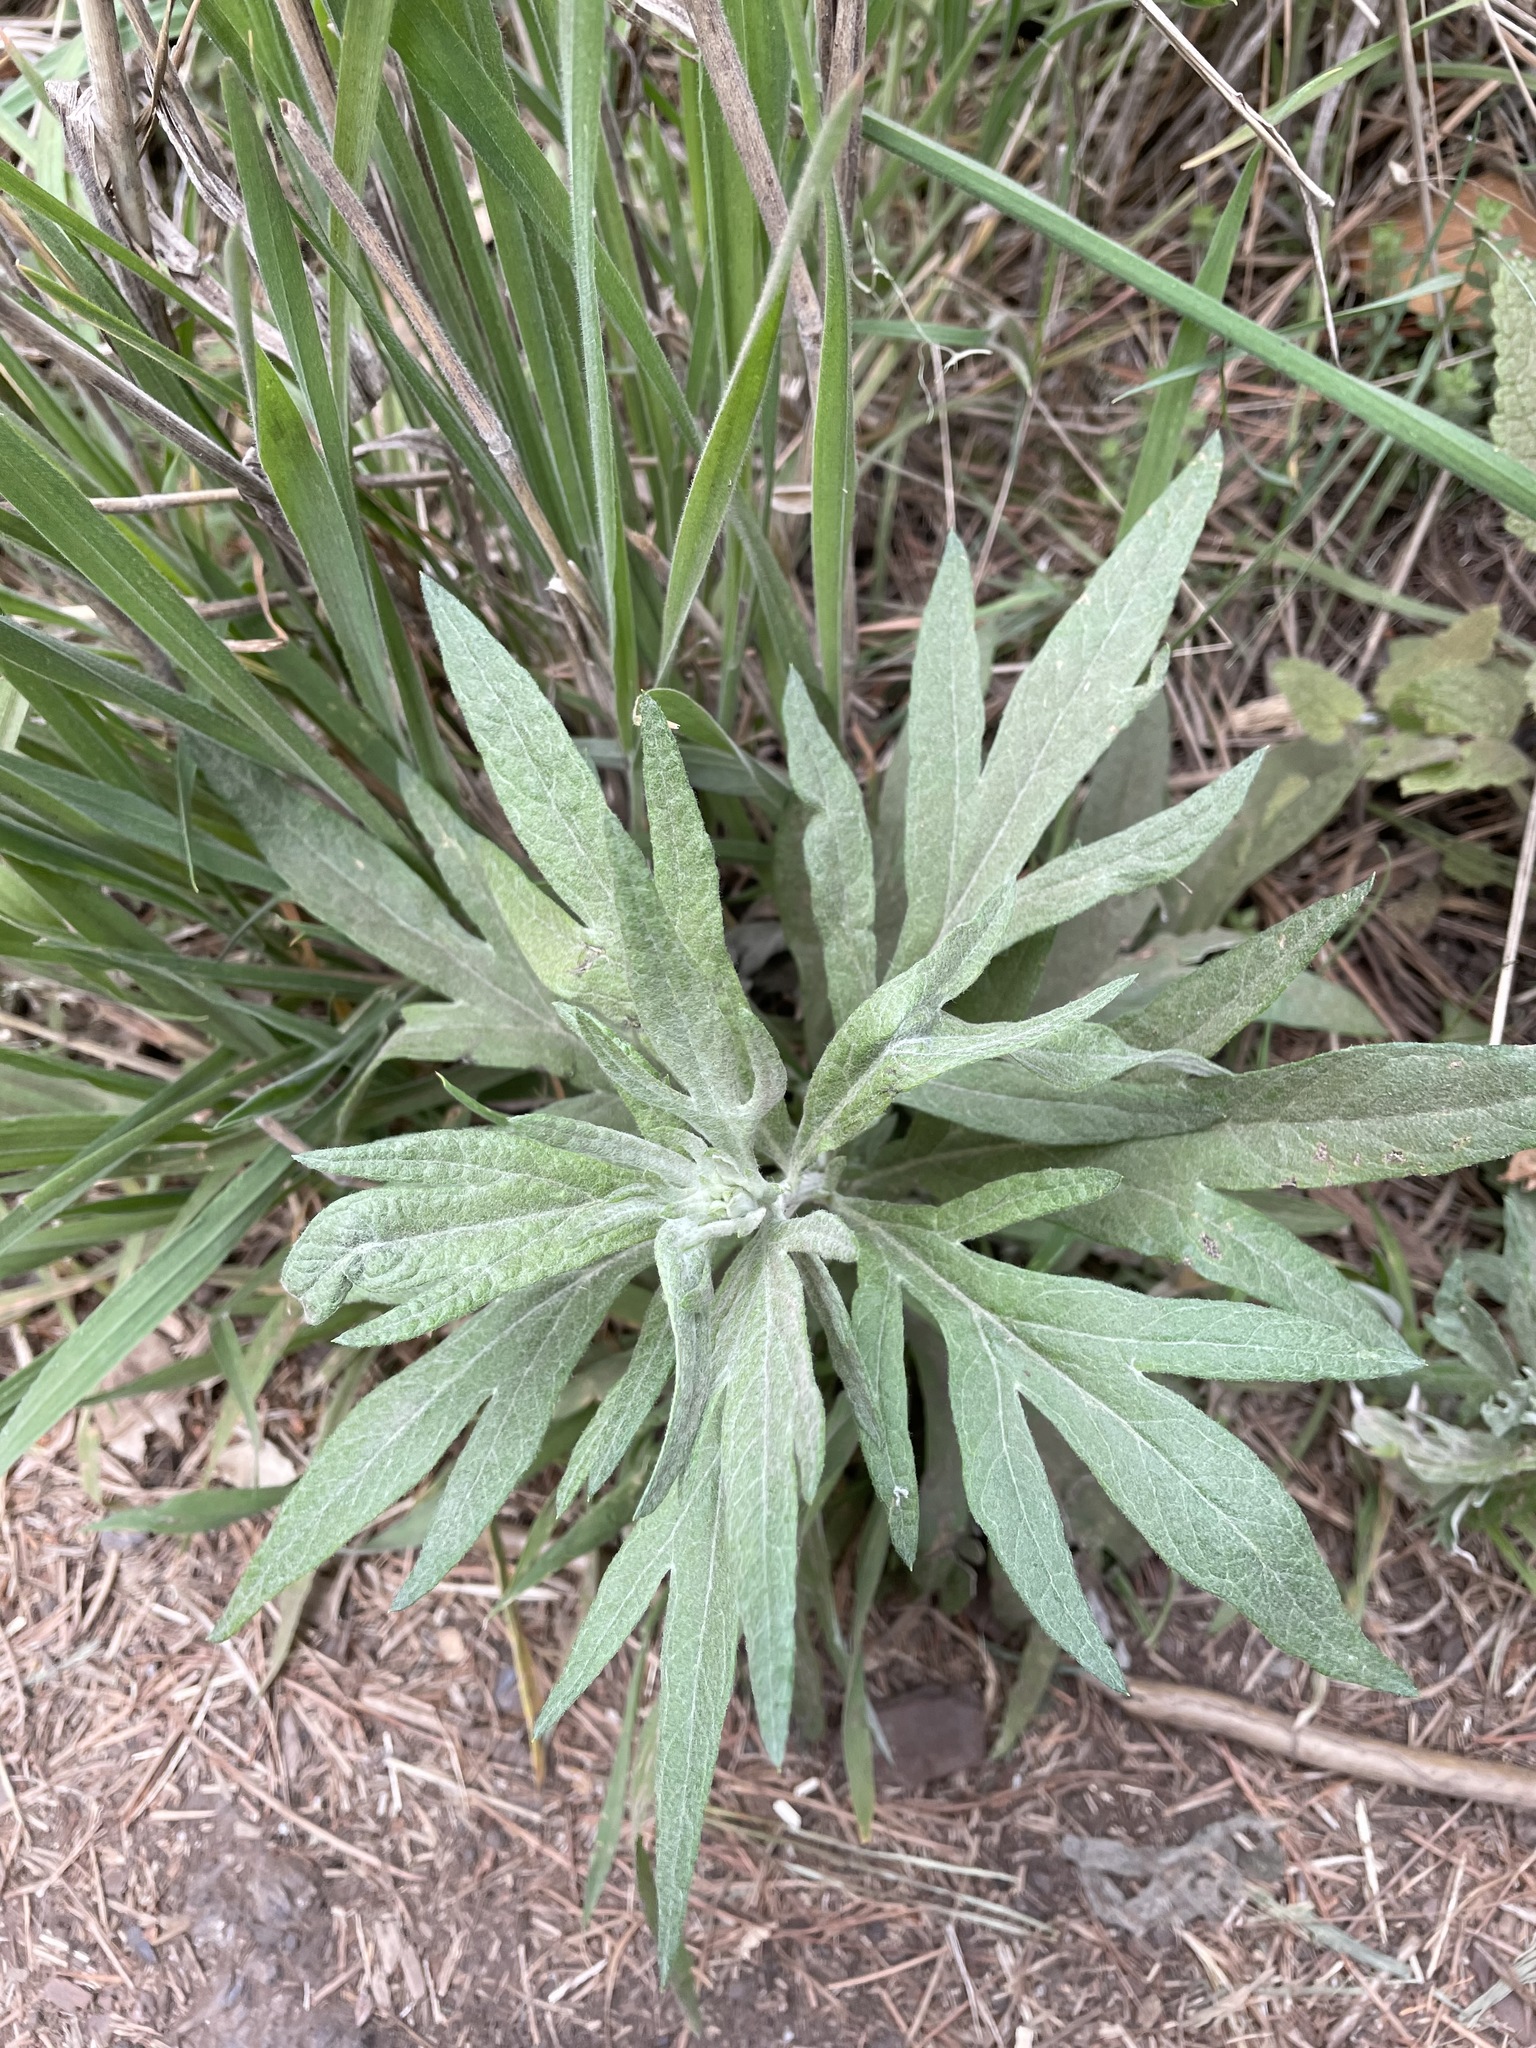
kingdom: Plantae
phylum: Tracheophyta
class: Magnoliopsida
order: Asterales
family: Asteraceae
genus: Artemisia
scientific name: Artemisia douglasiana
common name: Northwest mugwort
